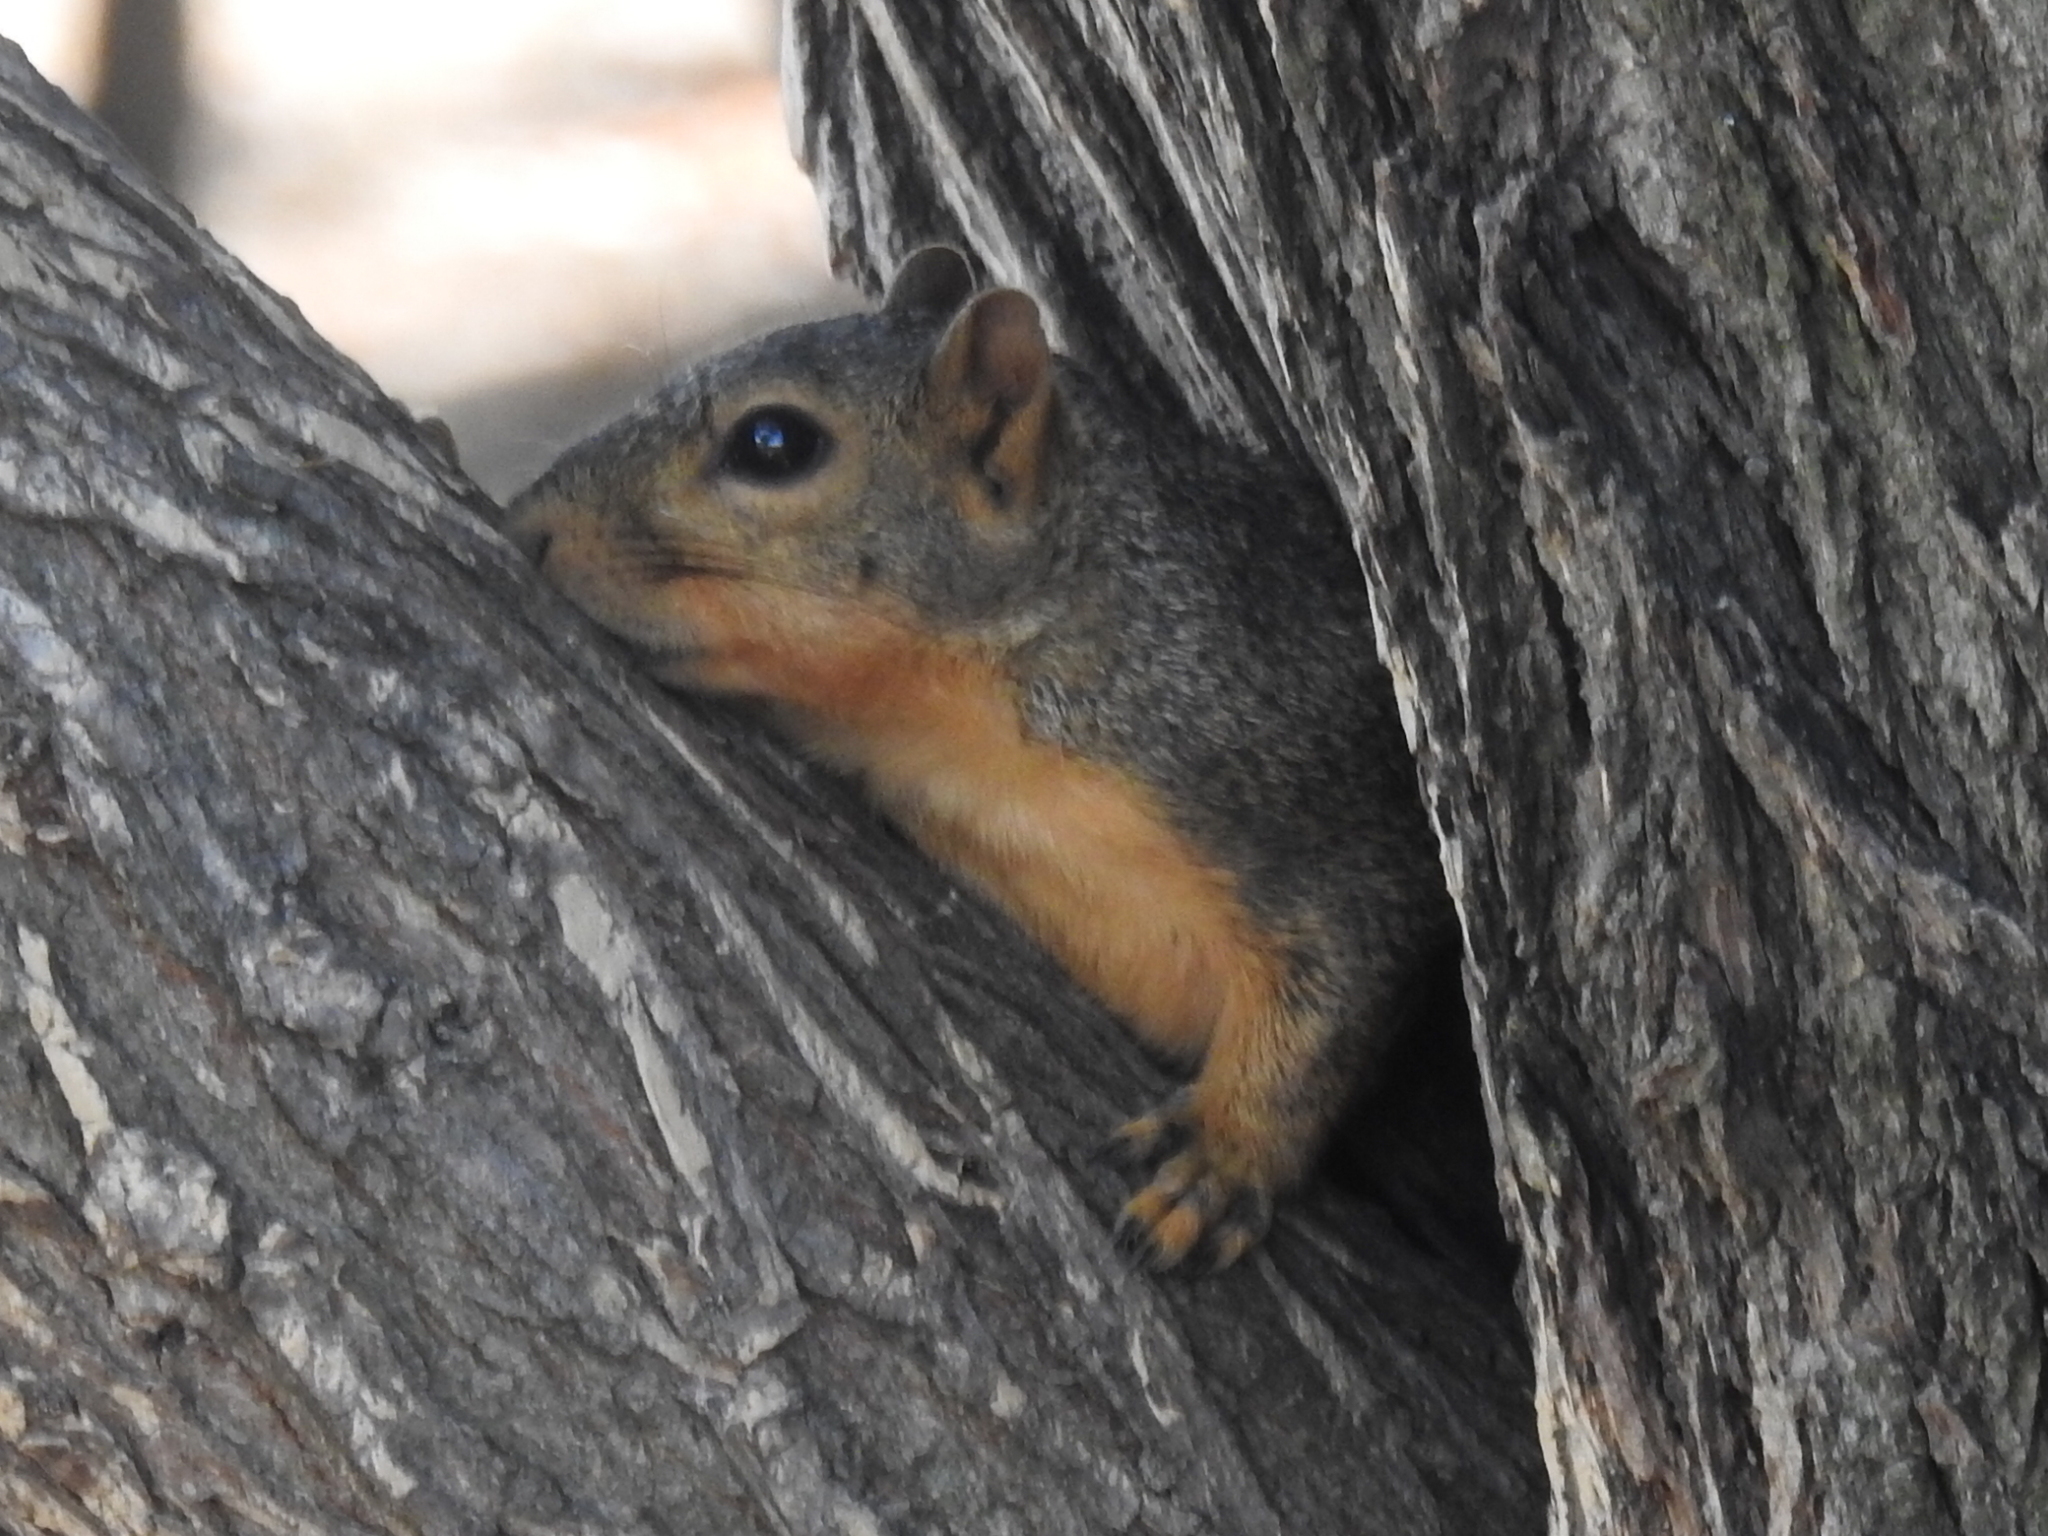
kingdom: Animalia
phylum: Chordata
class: Mammalia
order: Rodentia
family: Sciuridae
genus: Sciurus
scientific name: Sciurus niger
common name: Fox squirrel
